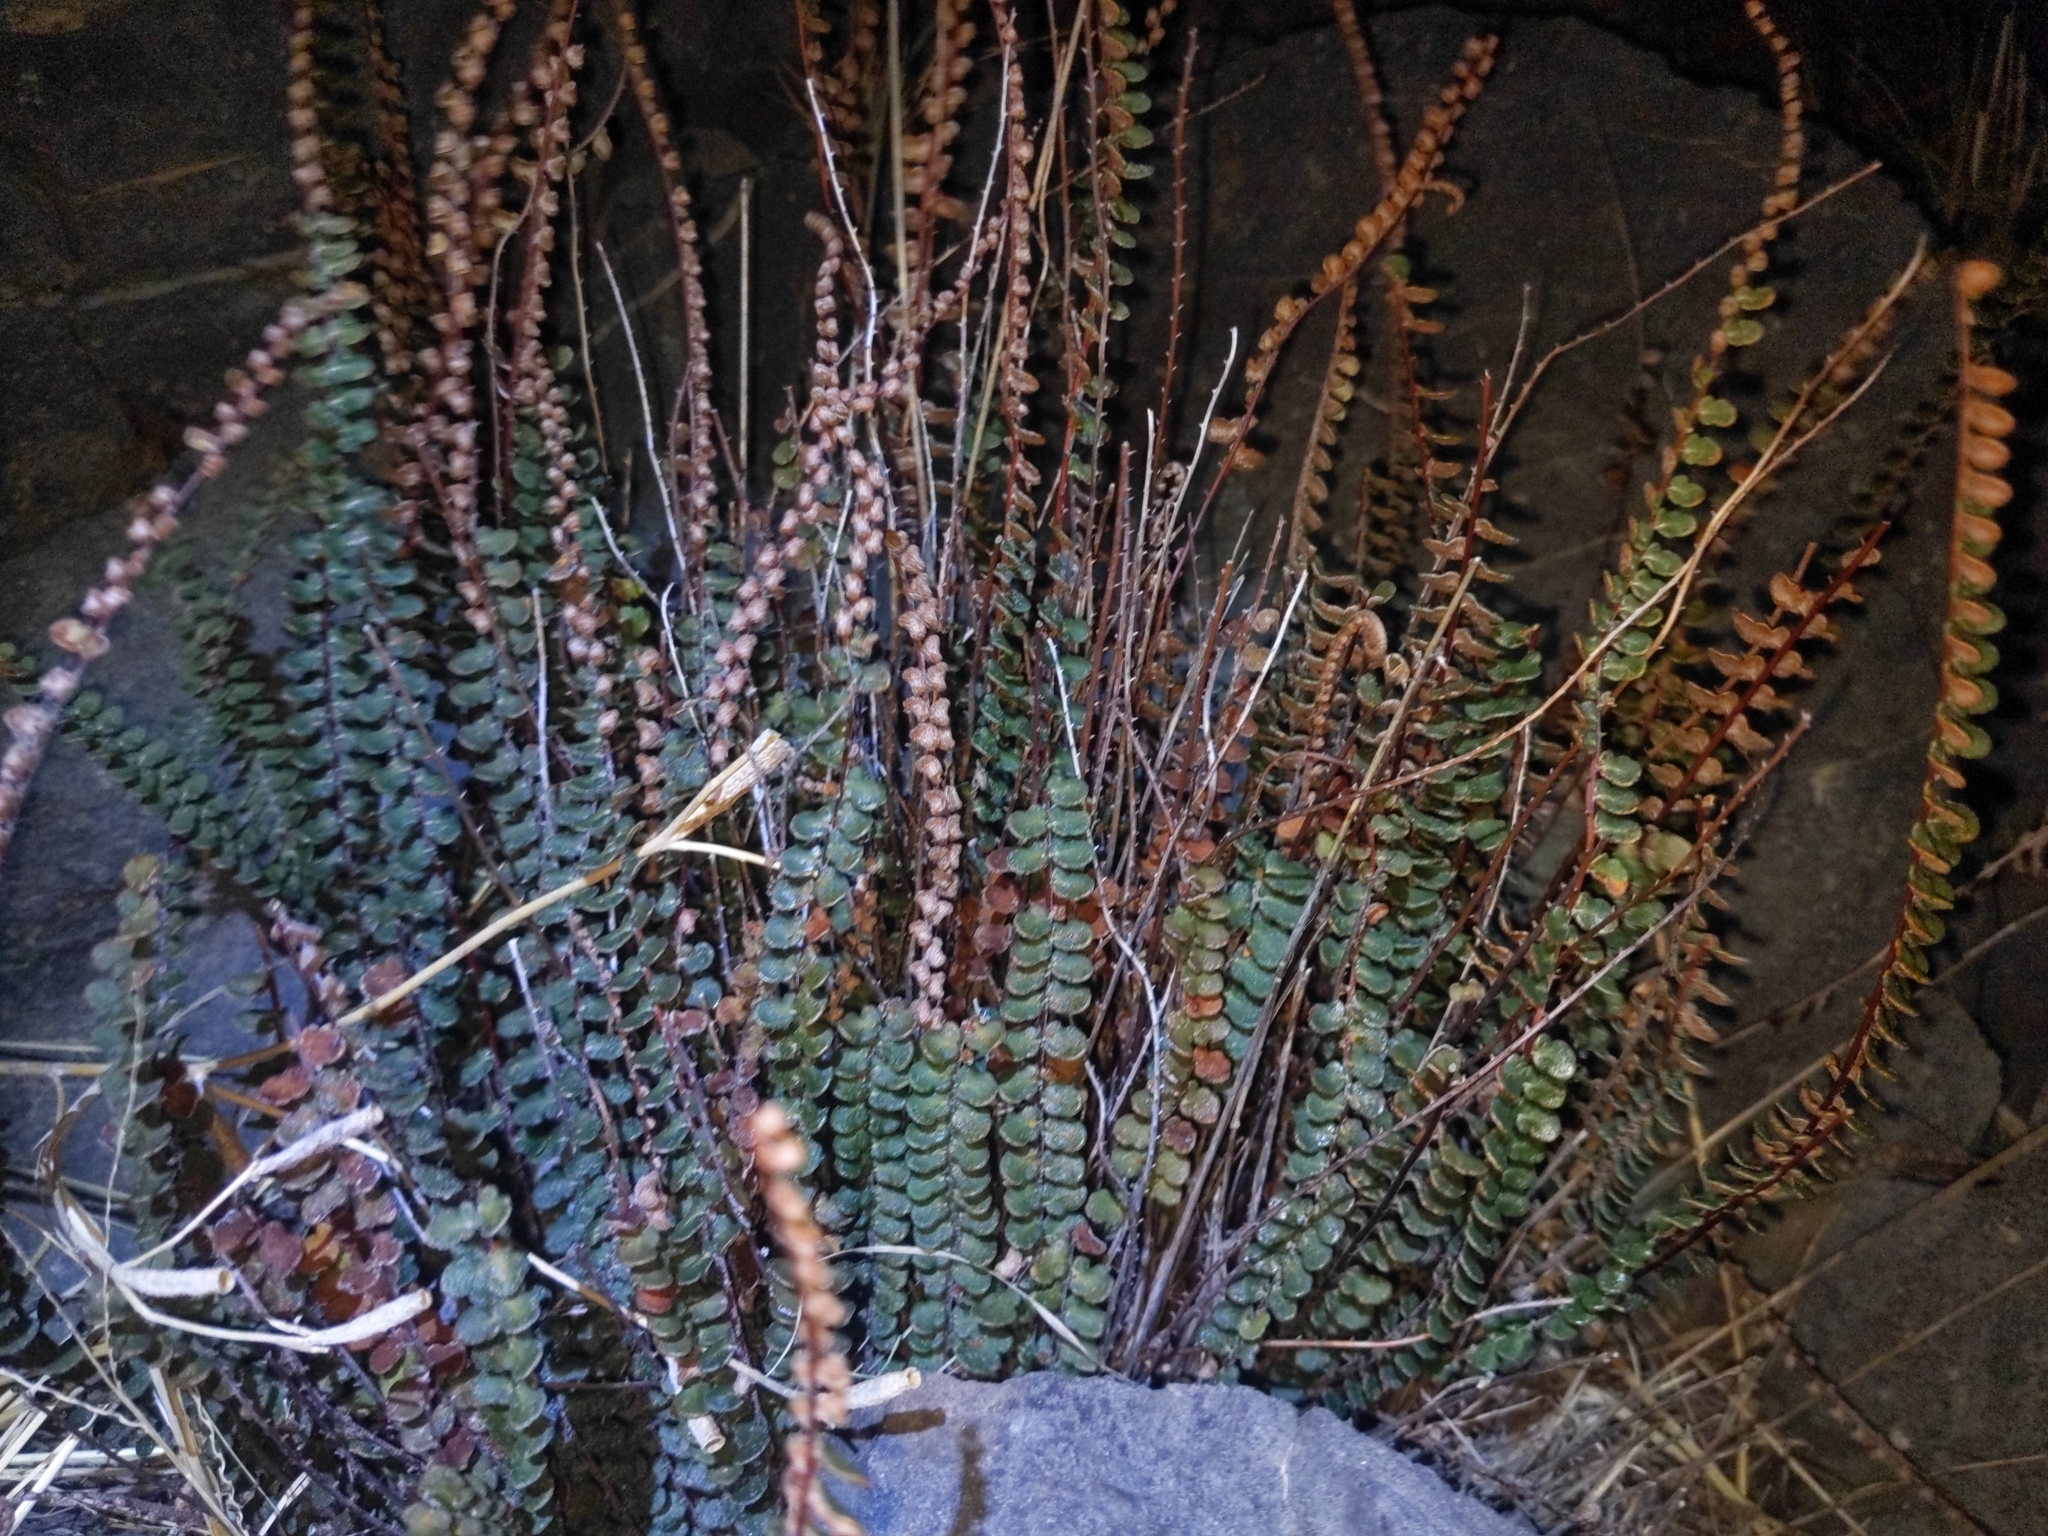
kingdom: Plantae
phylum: Tracheophyta
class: Polypodiopsida
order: Polypodiales
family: Pteridaceae
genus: Astrolepis
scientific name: Astrolepis cochisensis
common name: Scaly cloak fern
